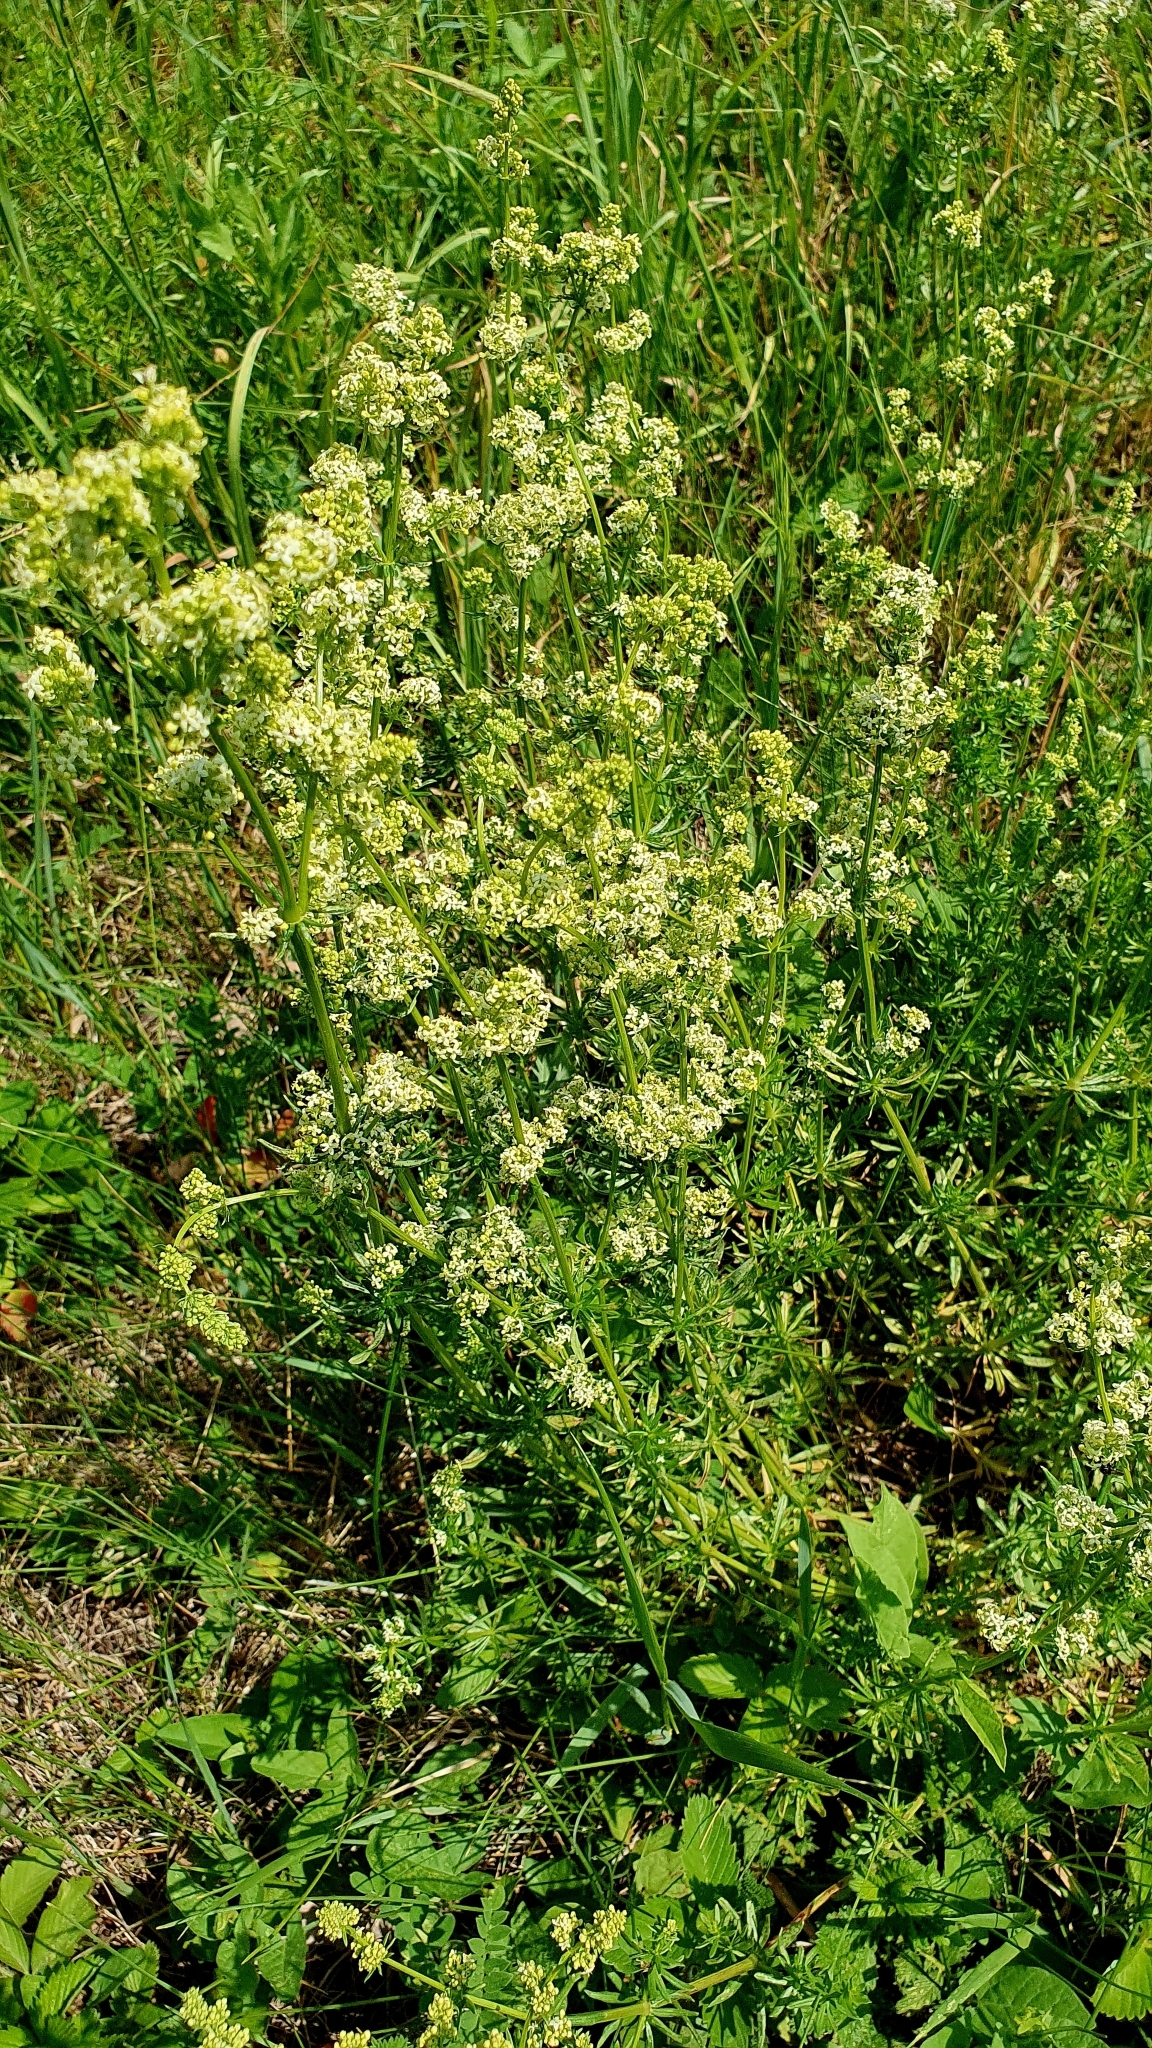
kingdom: Plantae
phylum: Tracheophyta
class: Magnoliopsida
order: Gentianales
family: Rubiaceae
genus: Galium
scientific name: Galium mollugo
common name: Hedge bedstraw
